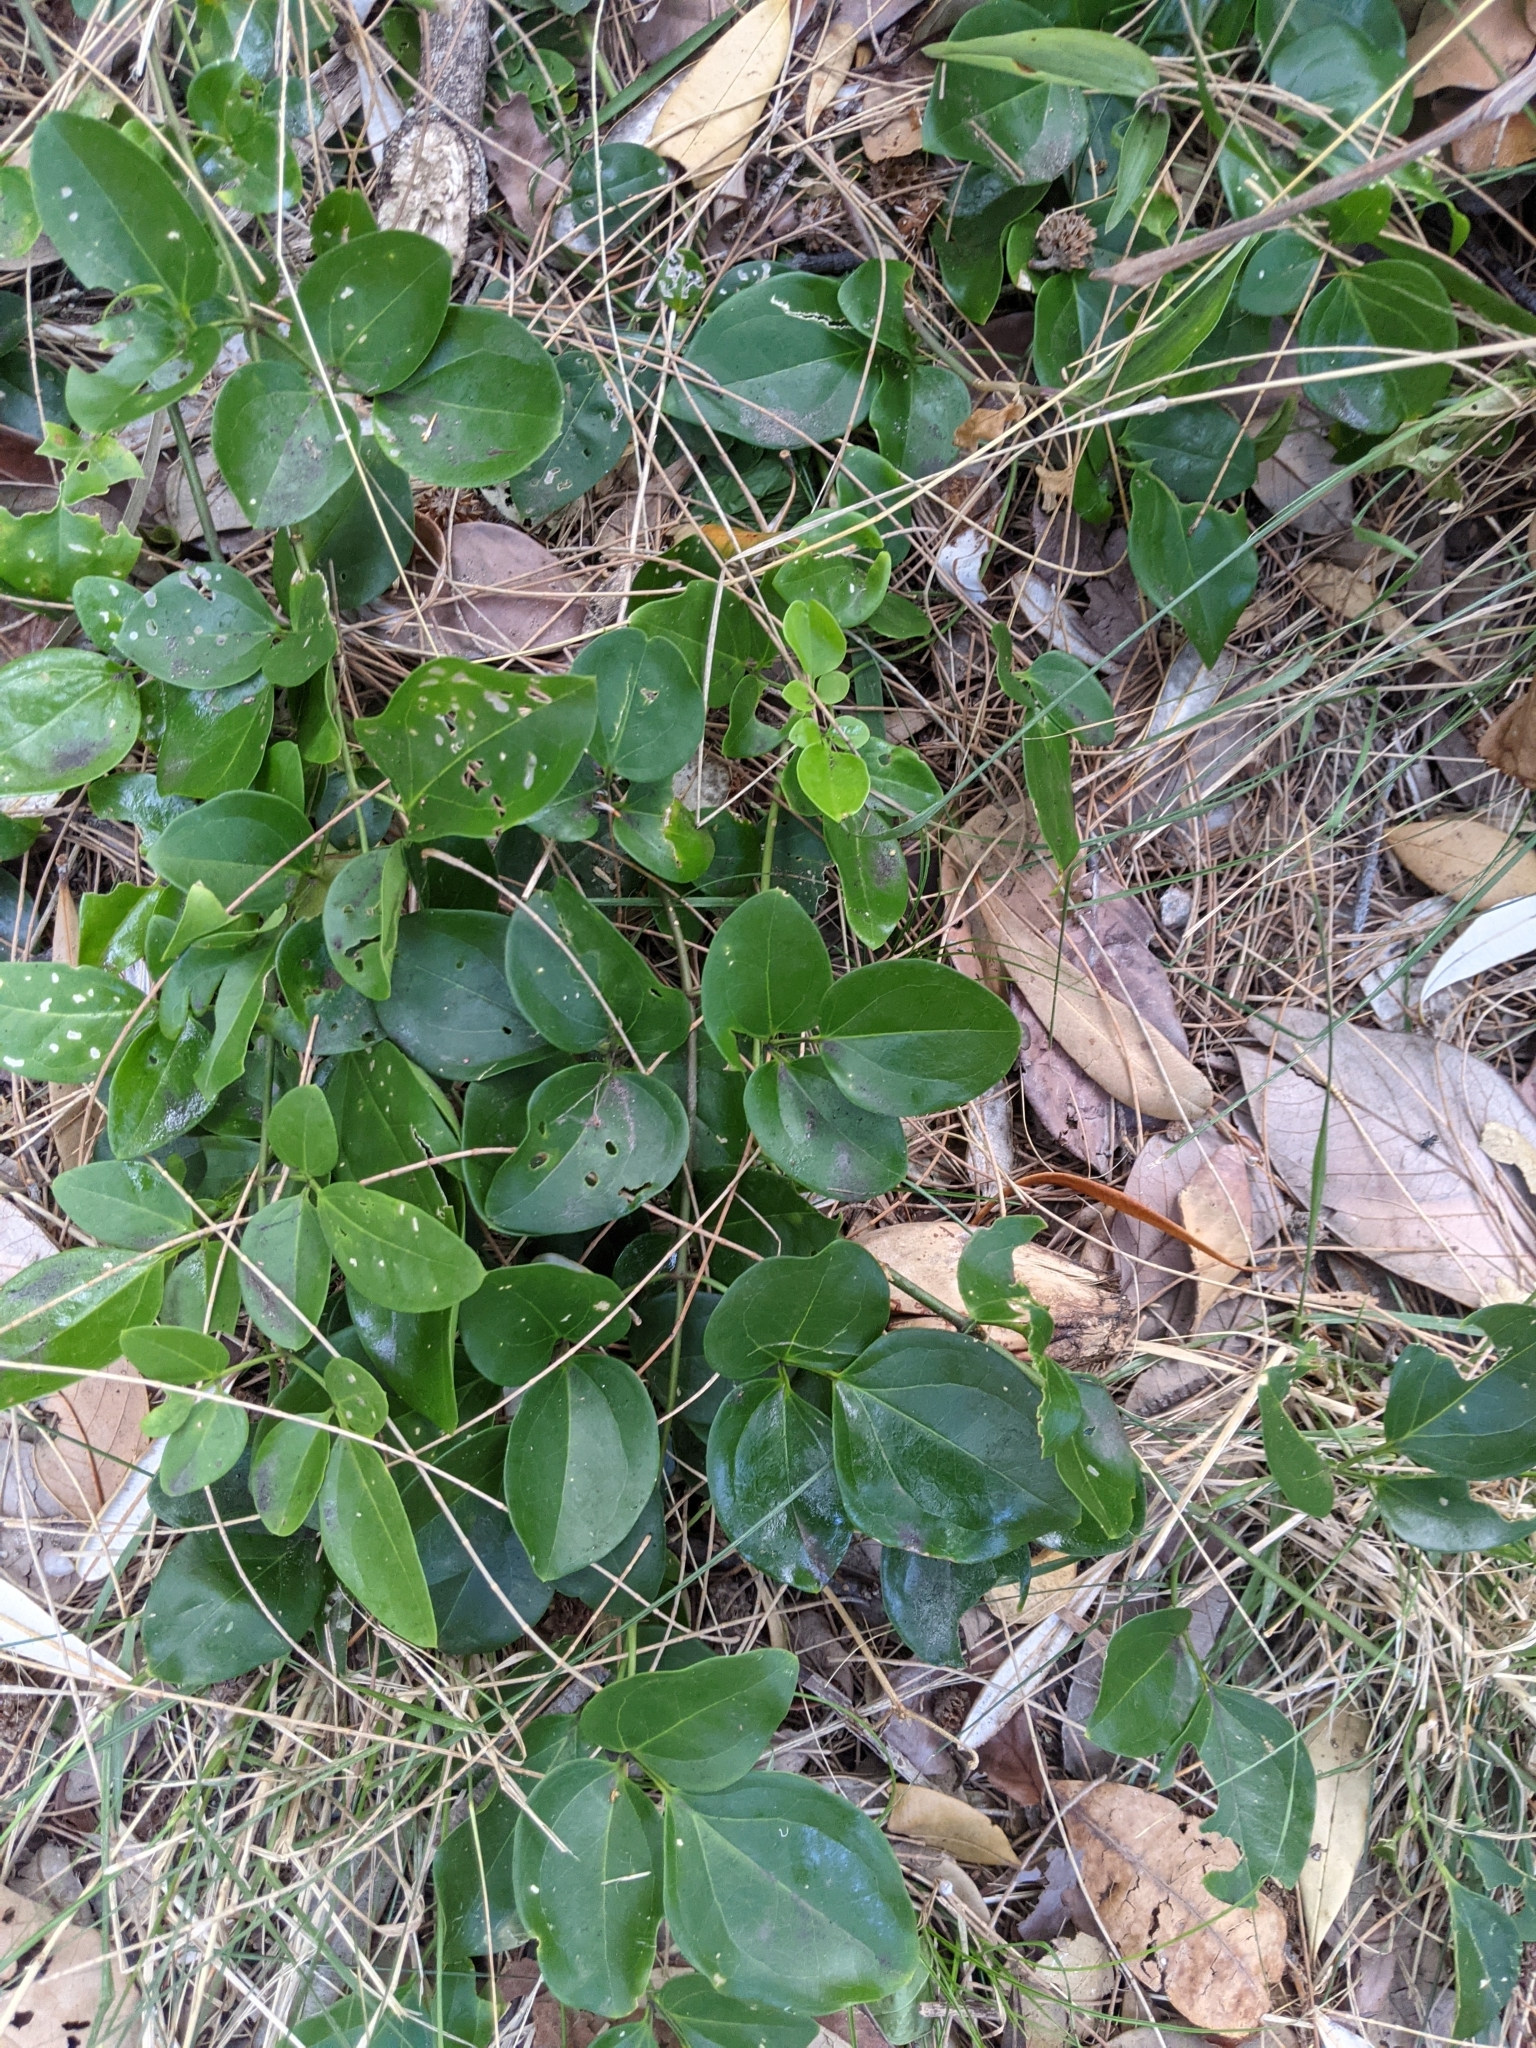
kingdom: Plantae
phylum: Tracheophyta
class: Magnoliopsida
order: Lamiales
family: Oleaceae
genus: Jasminum
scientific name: Jasminum didymum
